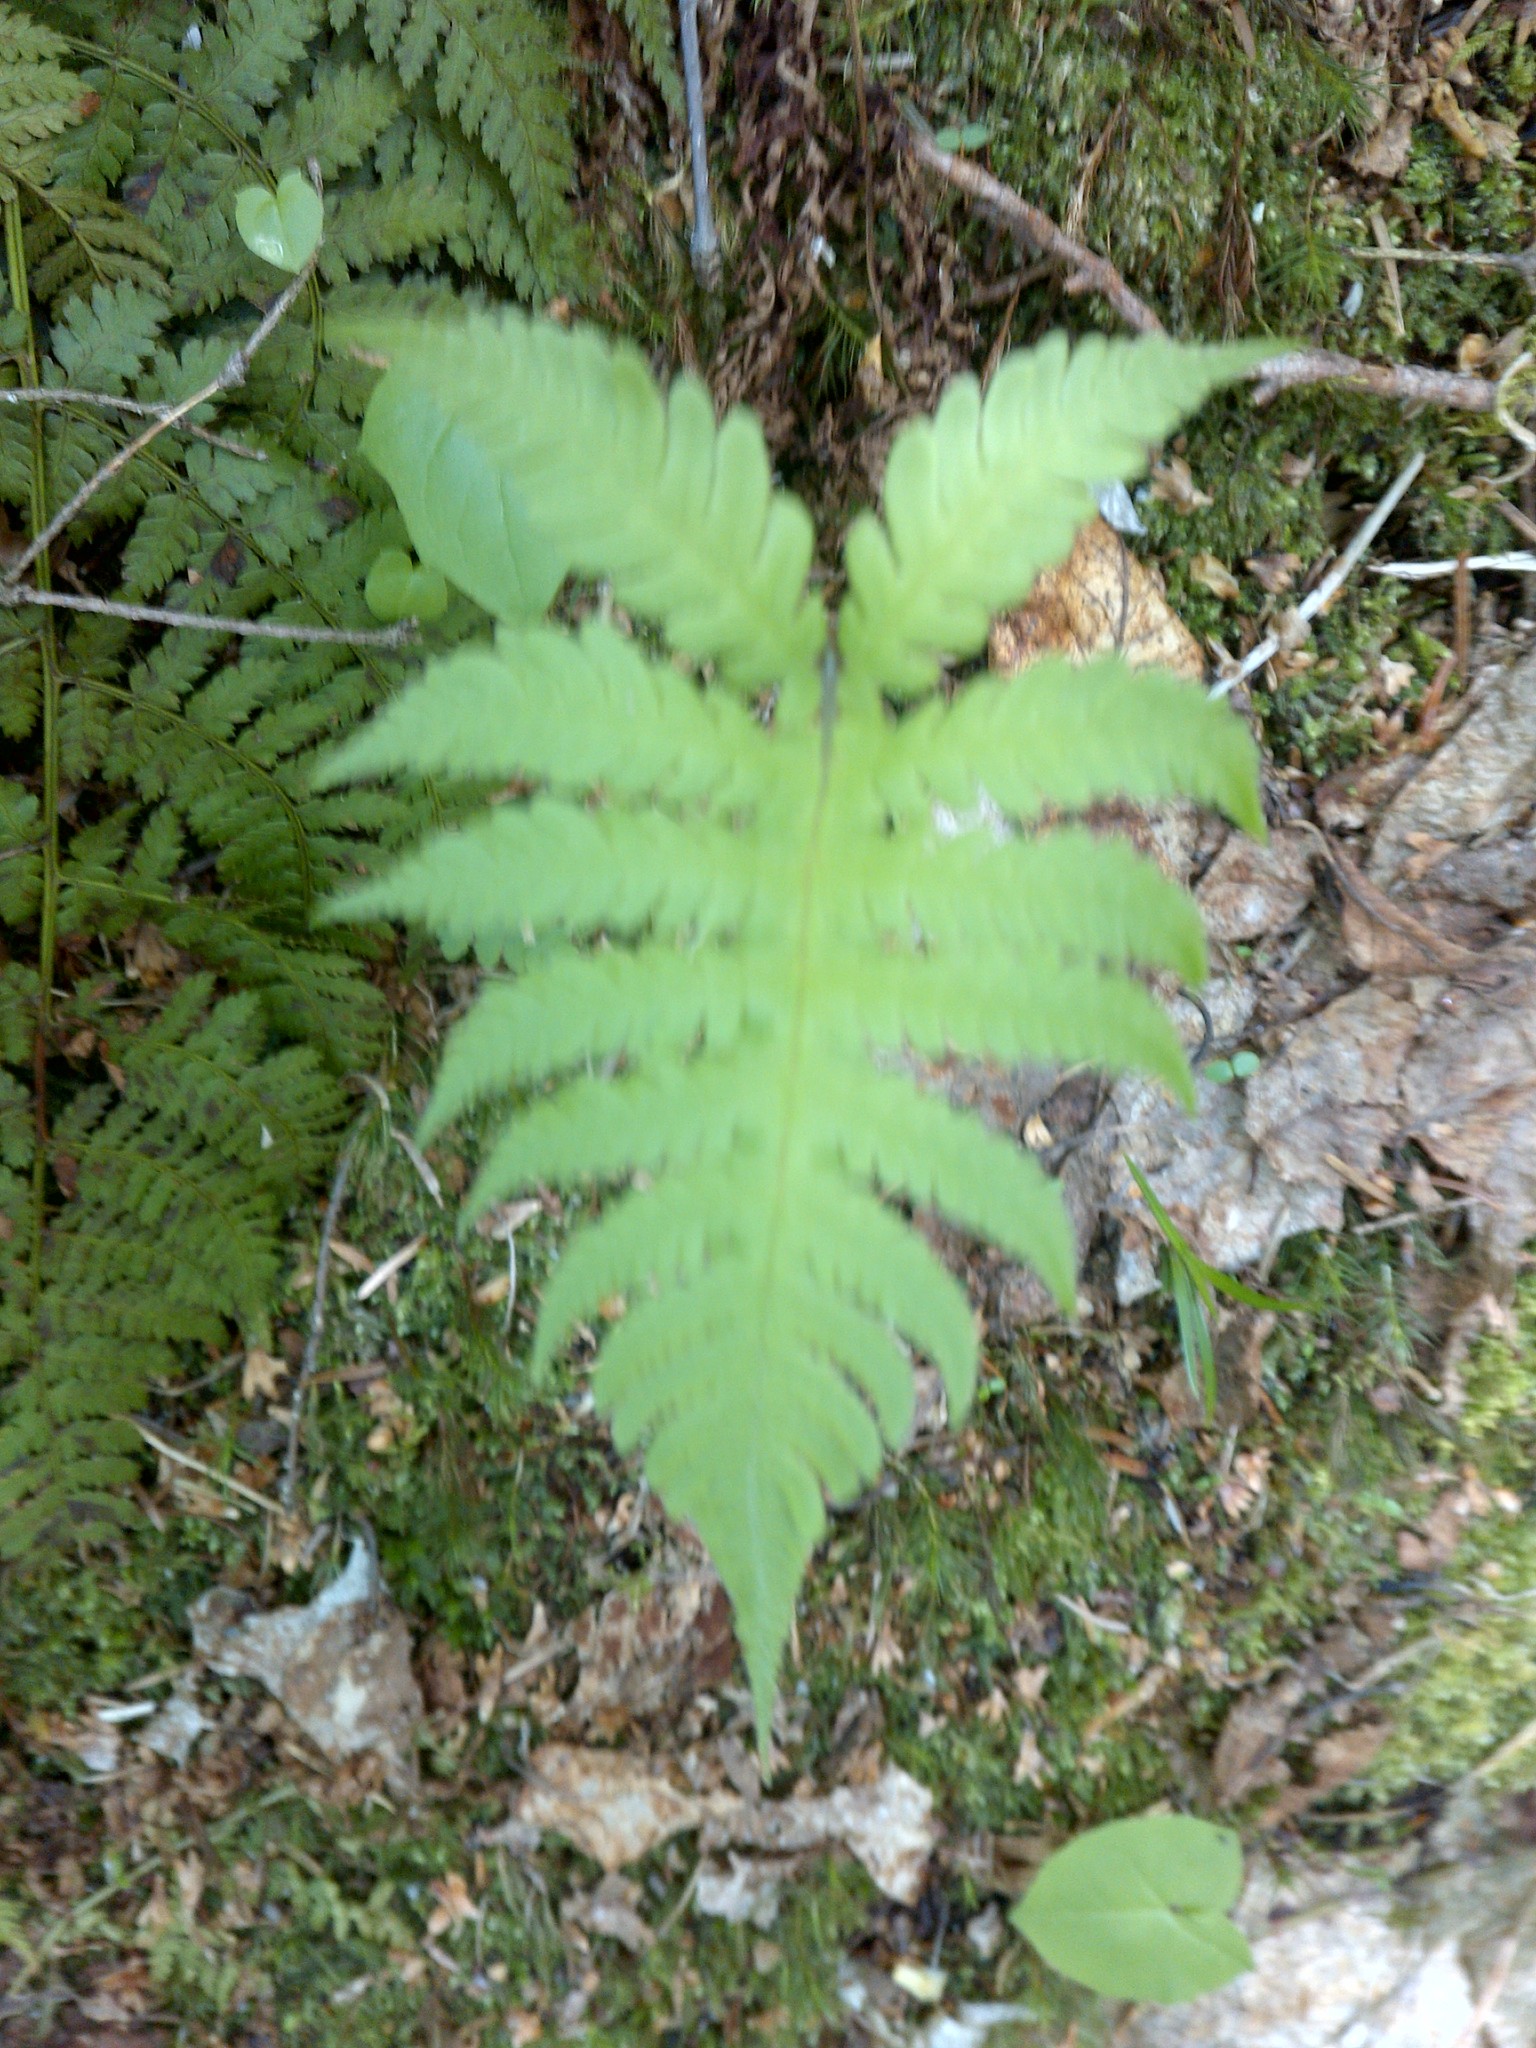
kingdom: Plantae
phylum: Tracheophyta
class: Polypodiopsida
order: Polypodiales
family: Thelypteridaceae
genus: Phegopteris
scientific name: Phegopteris connectilis
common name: Beech fern
